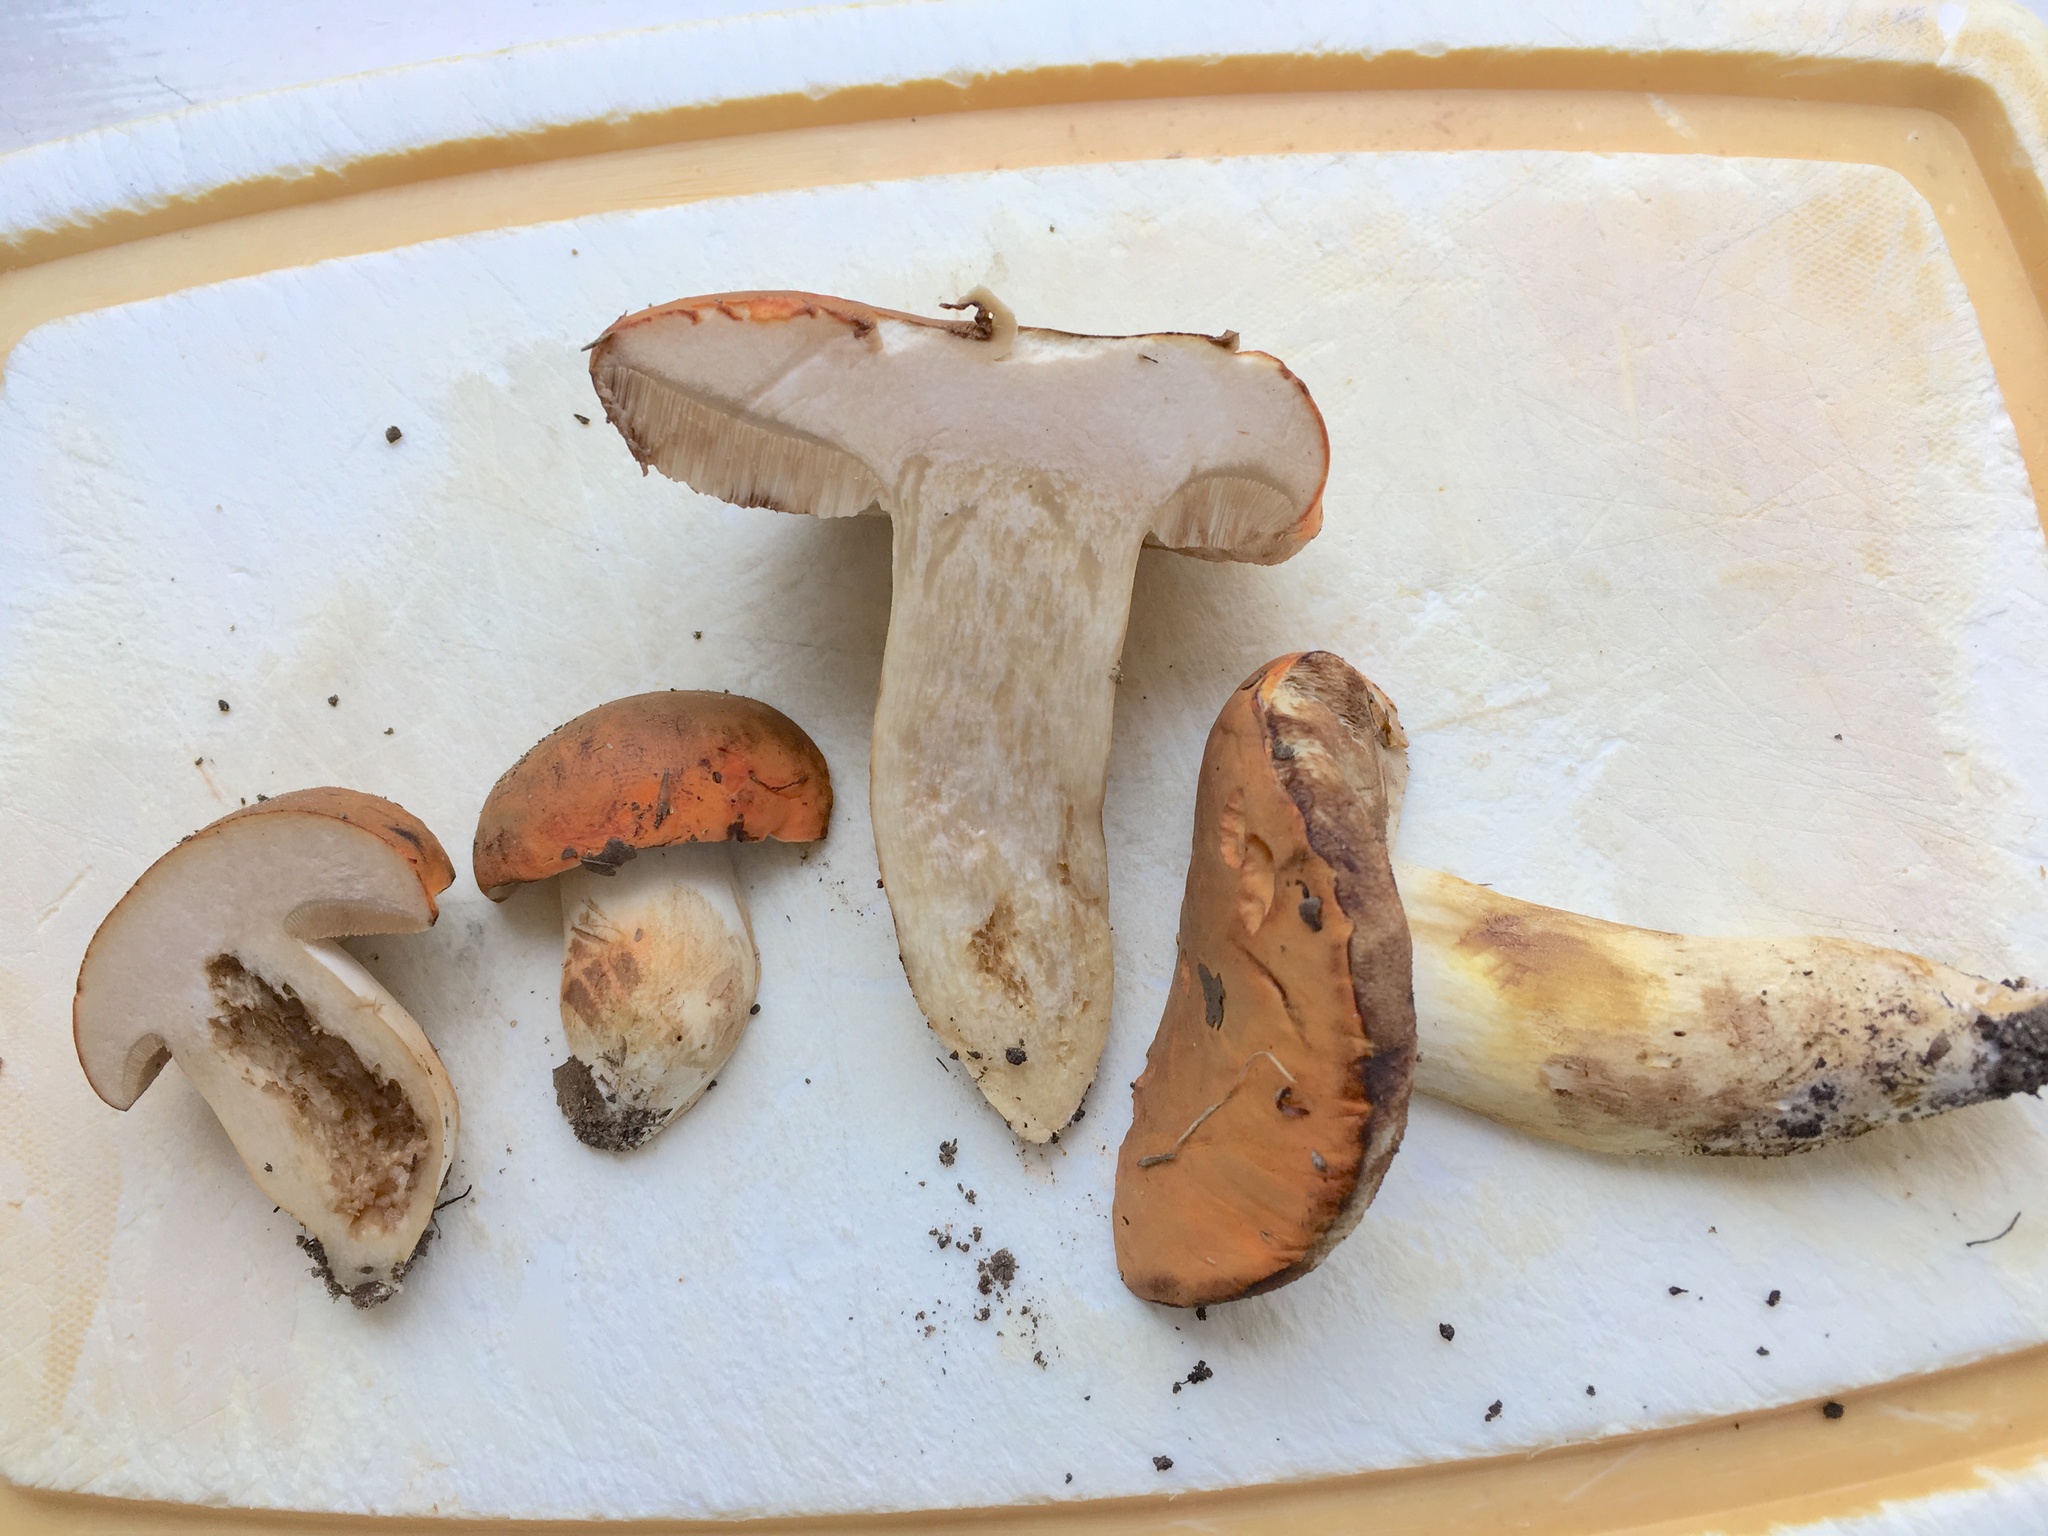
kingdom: Fungi
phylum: Basidiomycota
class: Agaricomycetes
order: Boletales
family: Boletaceae
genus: Tylopilus
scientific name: Tylopilus balloui
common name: Burnt-orange bolete
